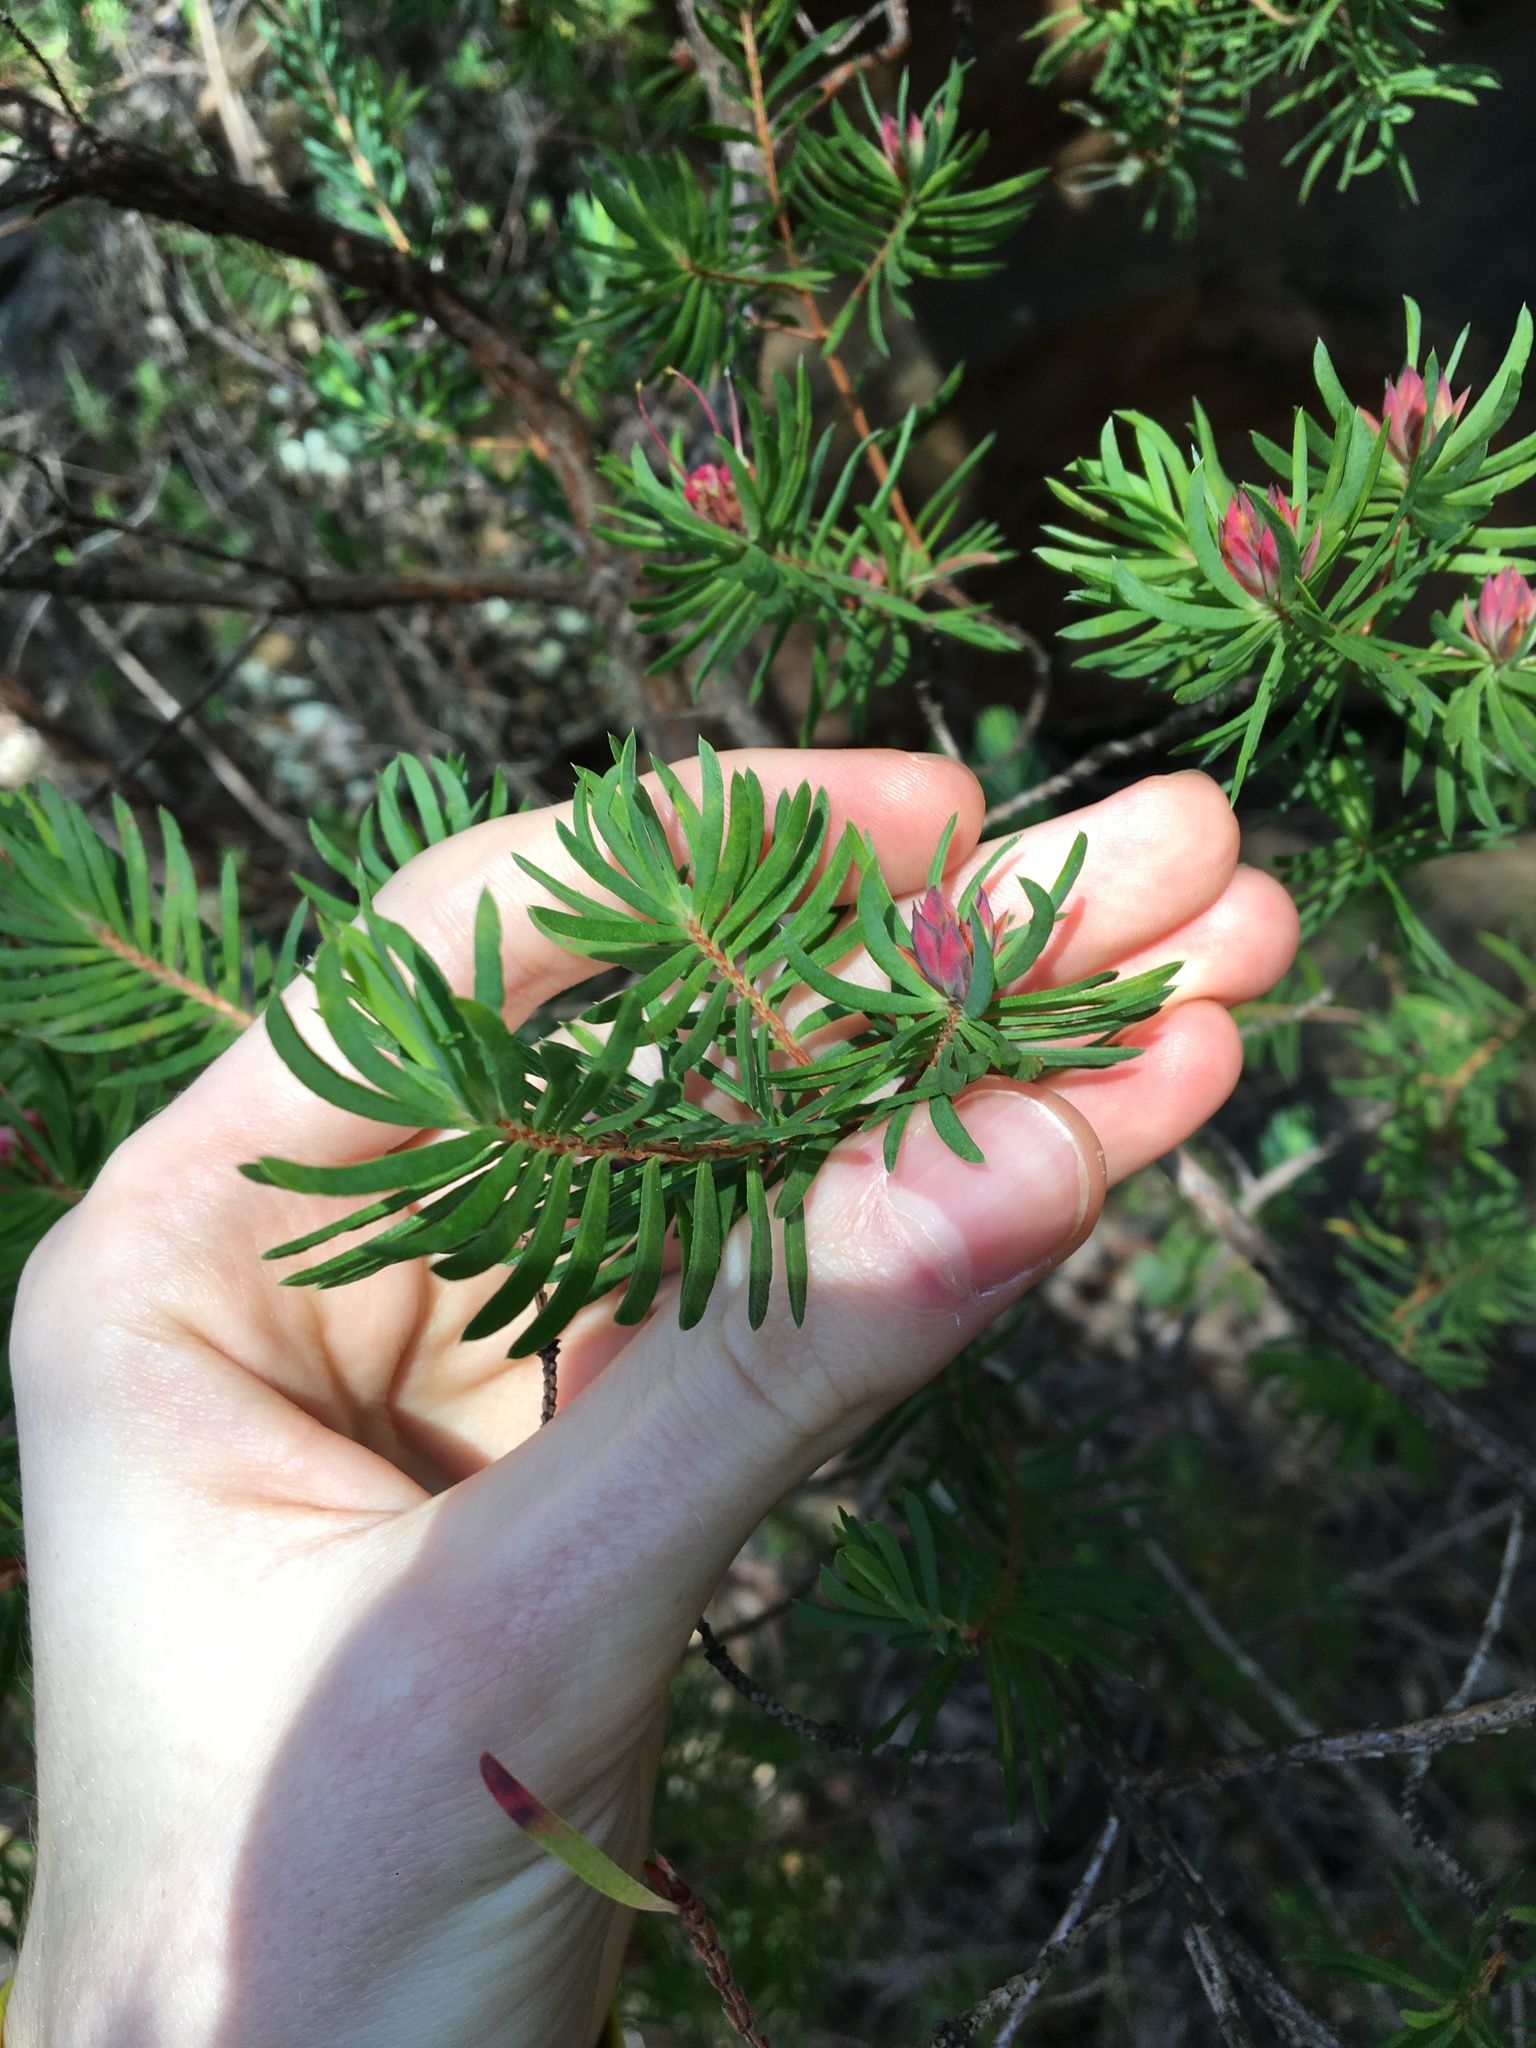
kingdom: Plantae
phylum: Tracheophyta
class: Magnoliopsida
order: Myrtales
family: Myrtaceae
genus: Darwinia
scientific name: Darwinia procera
